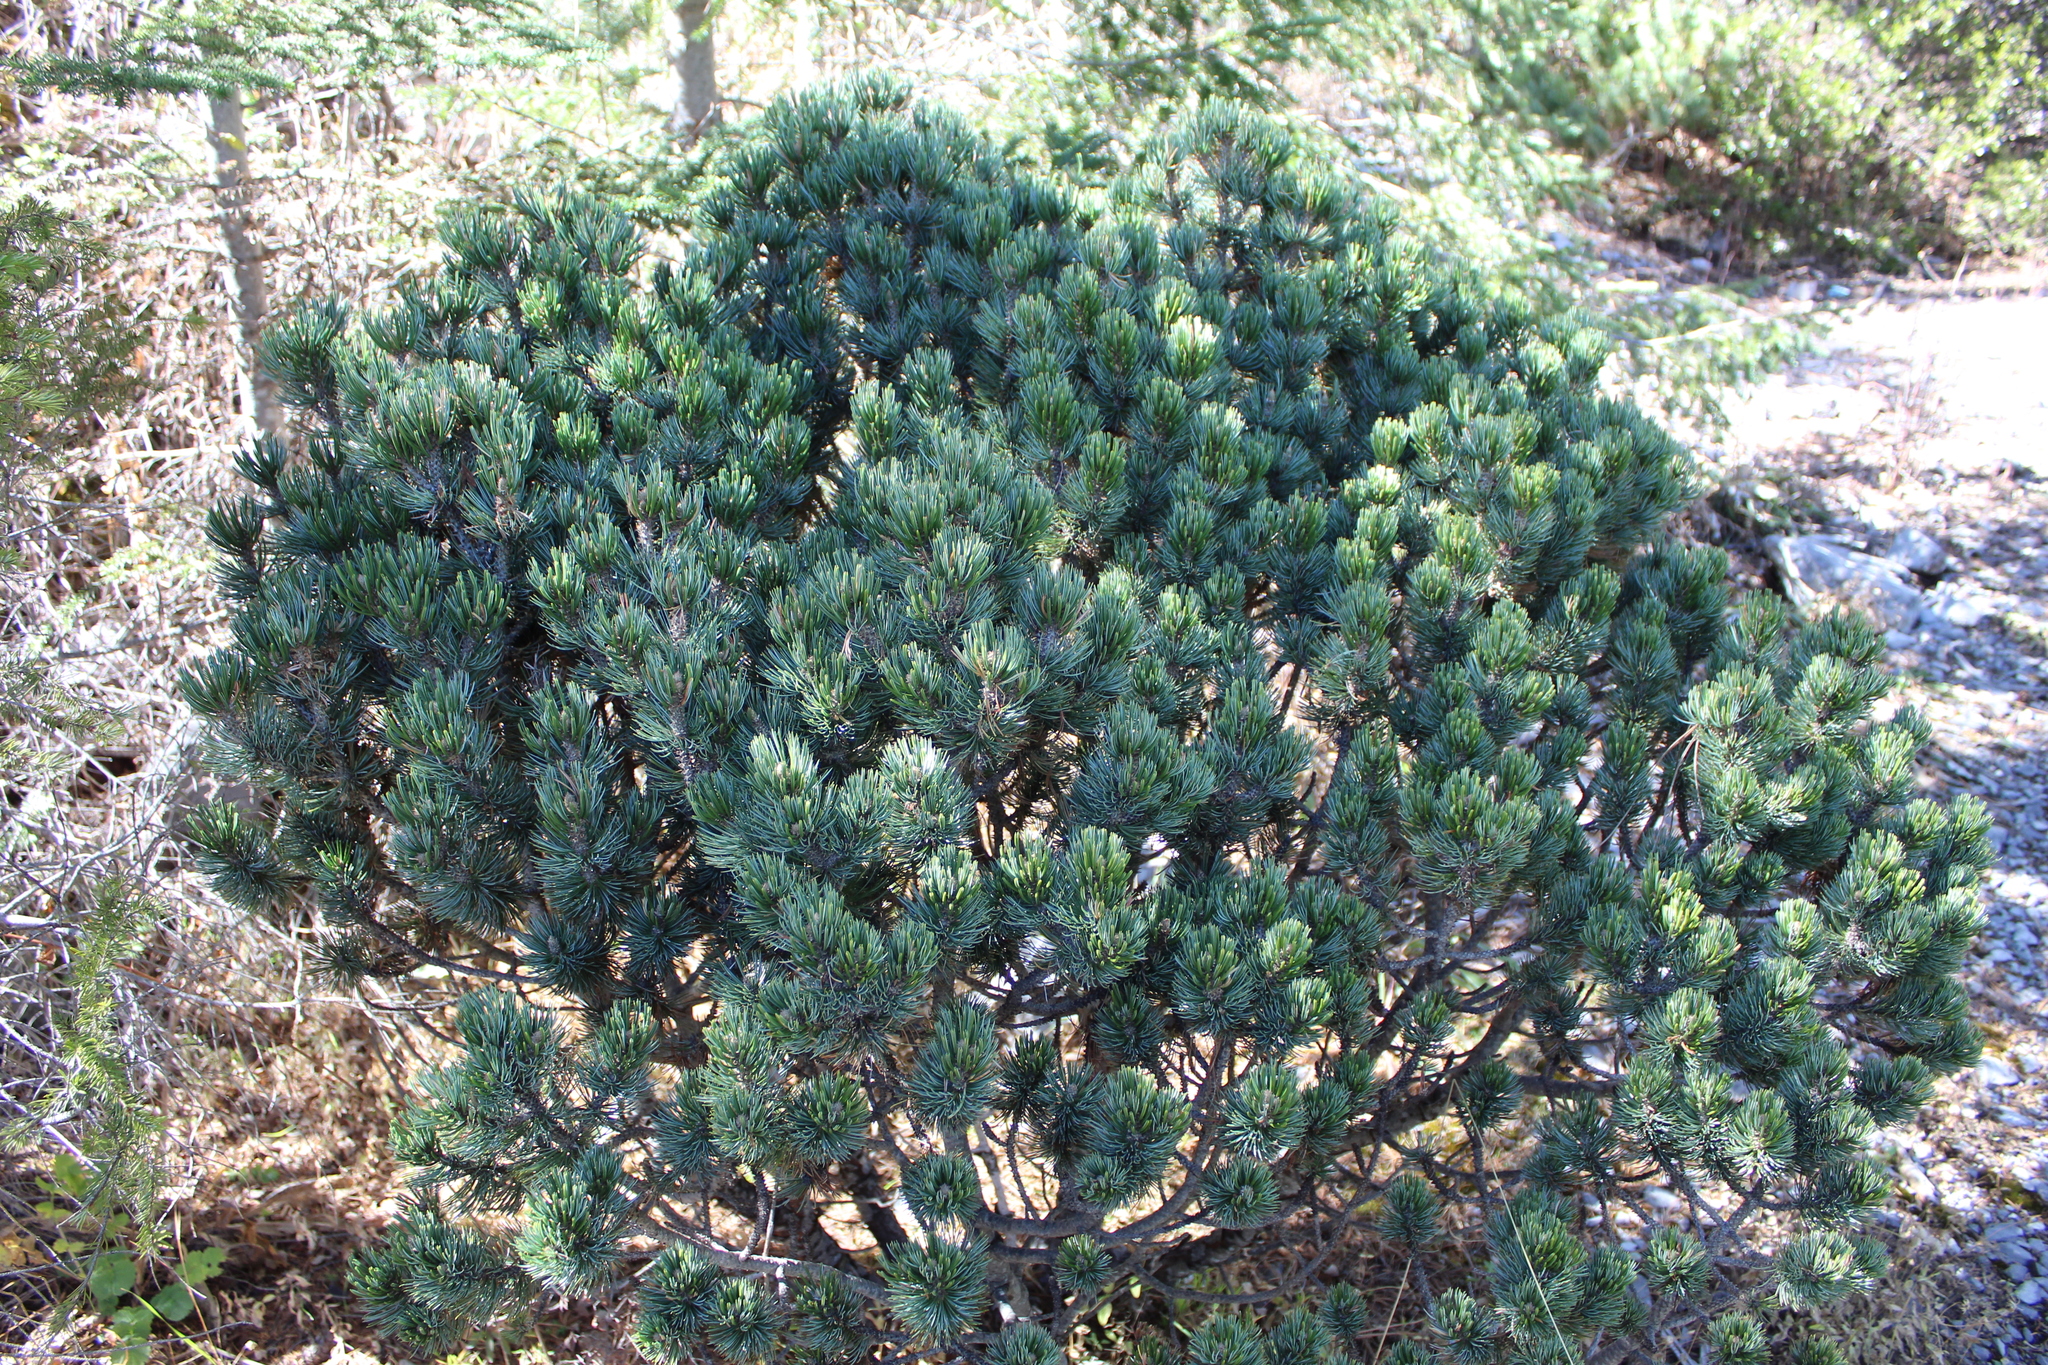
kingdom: Plantae
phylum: Tracheophyta
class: Pinopsida
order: Pinales
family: Pinaceae
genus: Pinus
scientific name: Pinus culminicola
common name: Potosi pinyon pine
